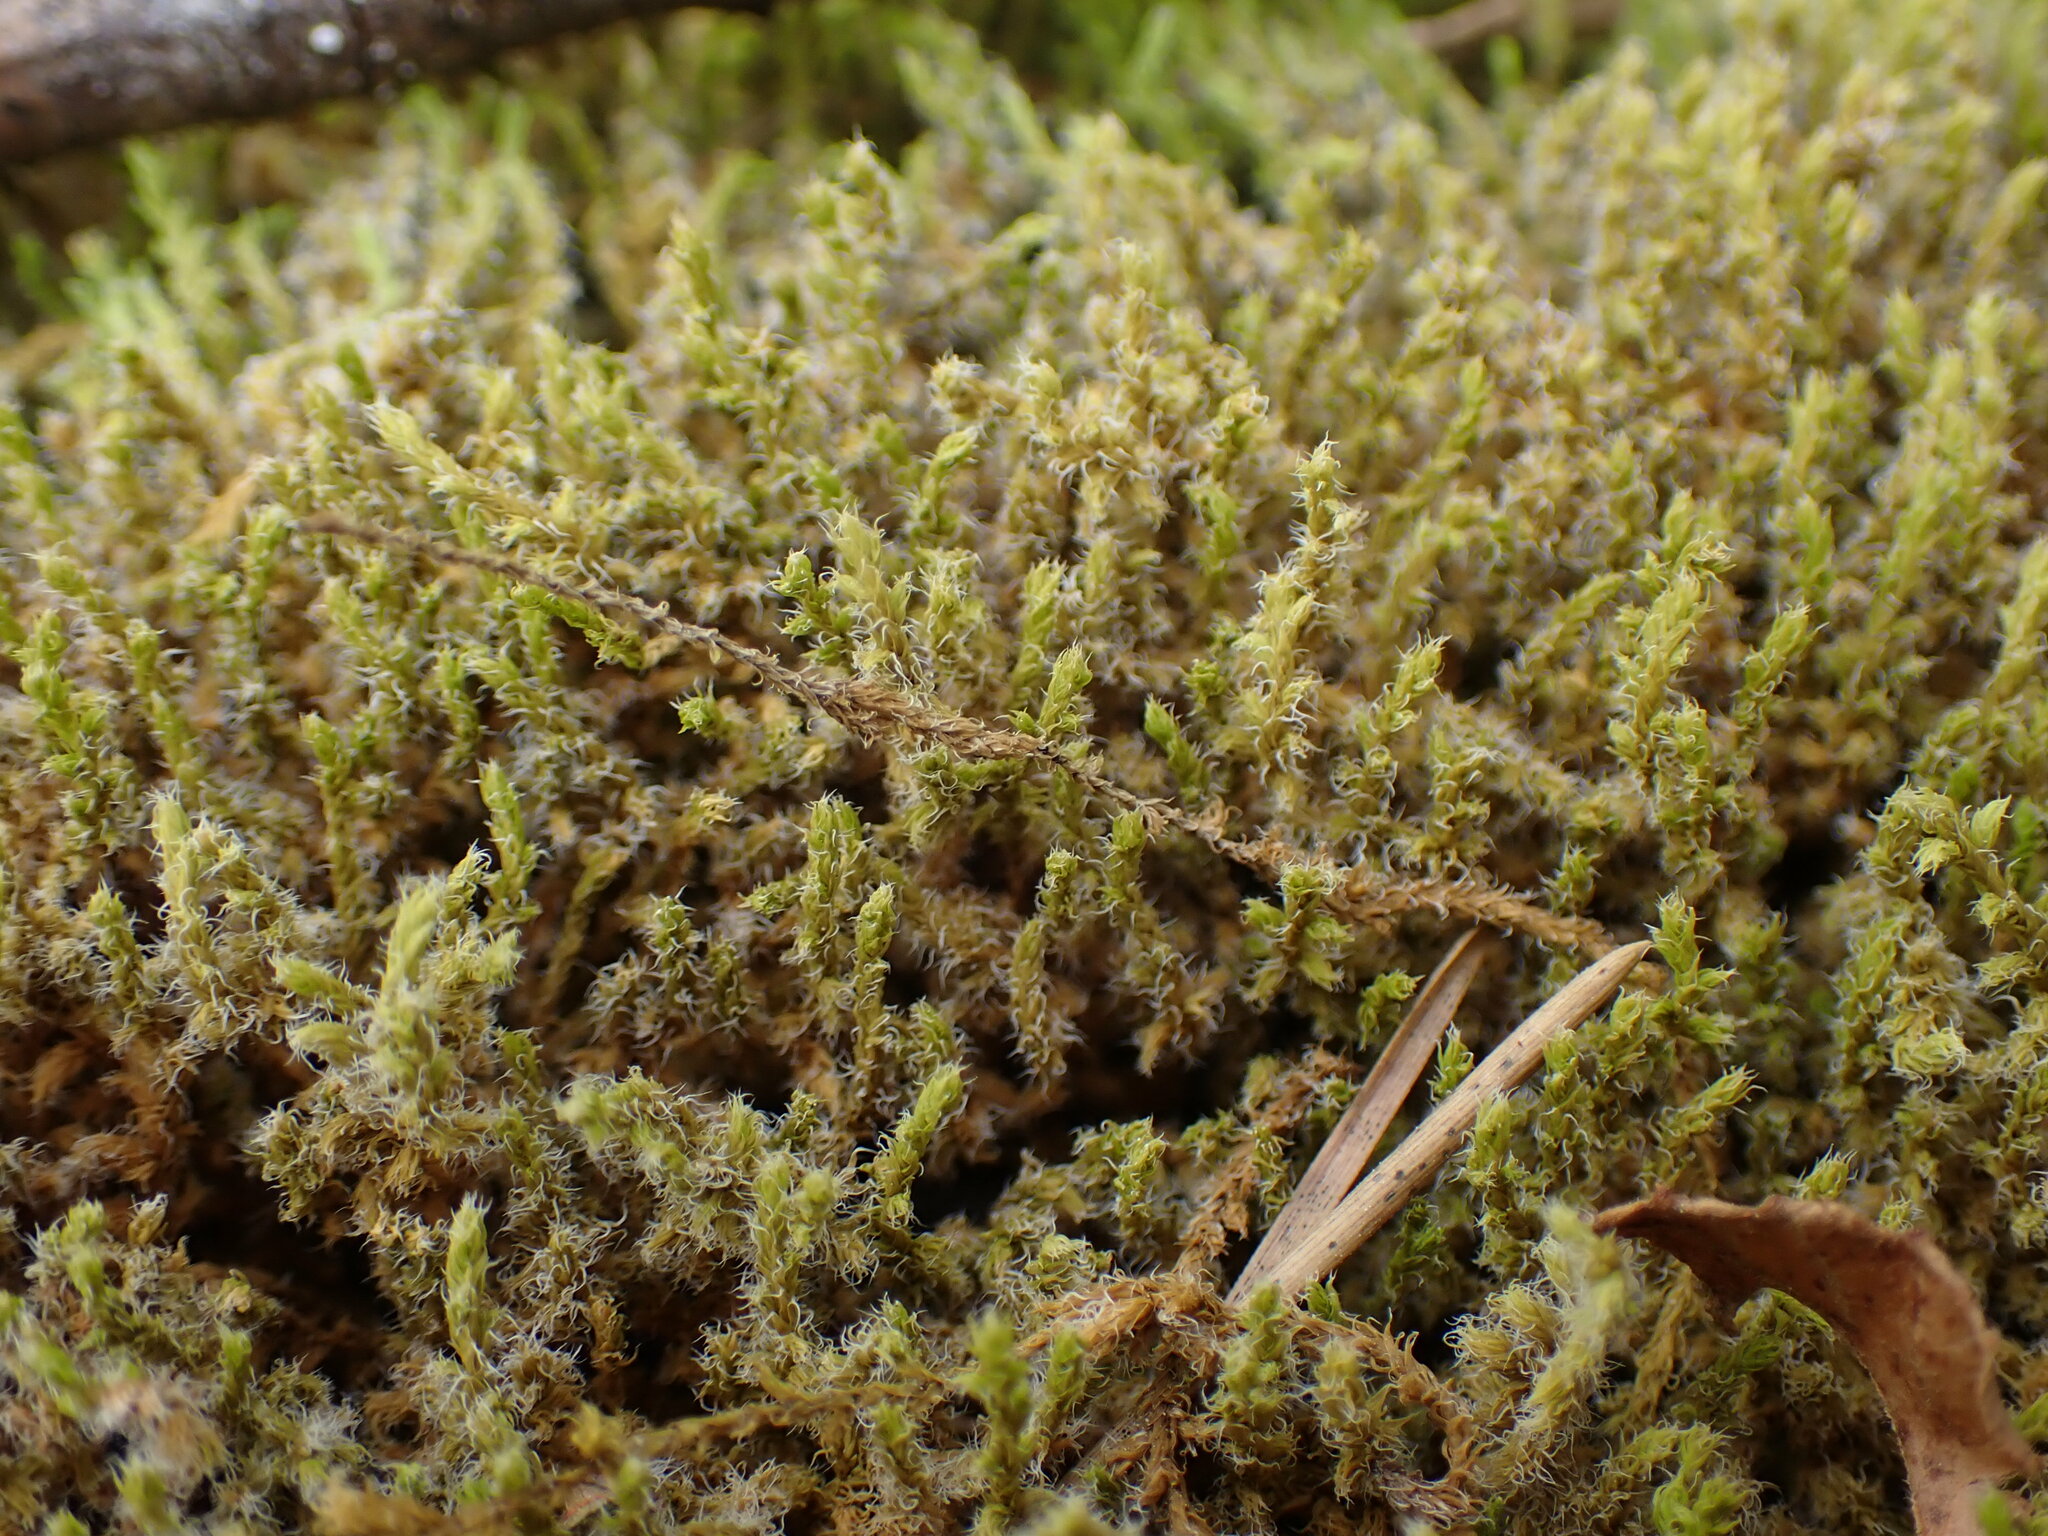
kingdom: Plantae
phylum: Bryophyta
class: Bryopsida
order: Grimmiales
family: Grimmiaceae
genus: Niphotrichum
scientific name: Niphotrichum elongatum
